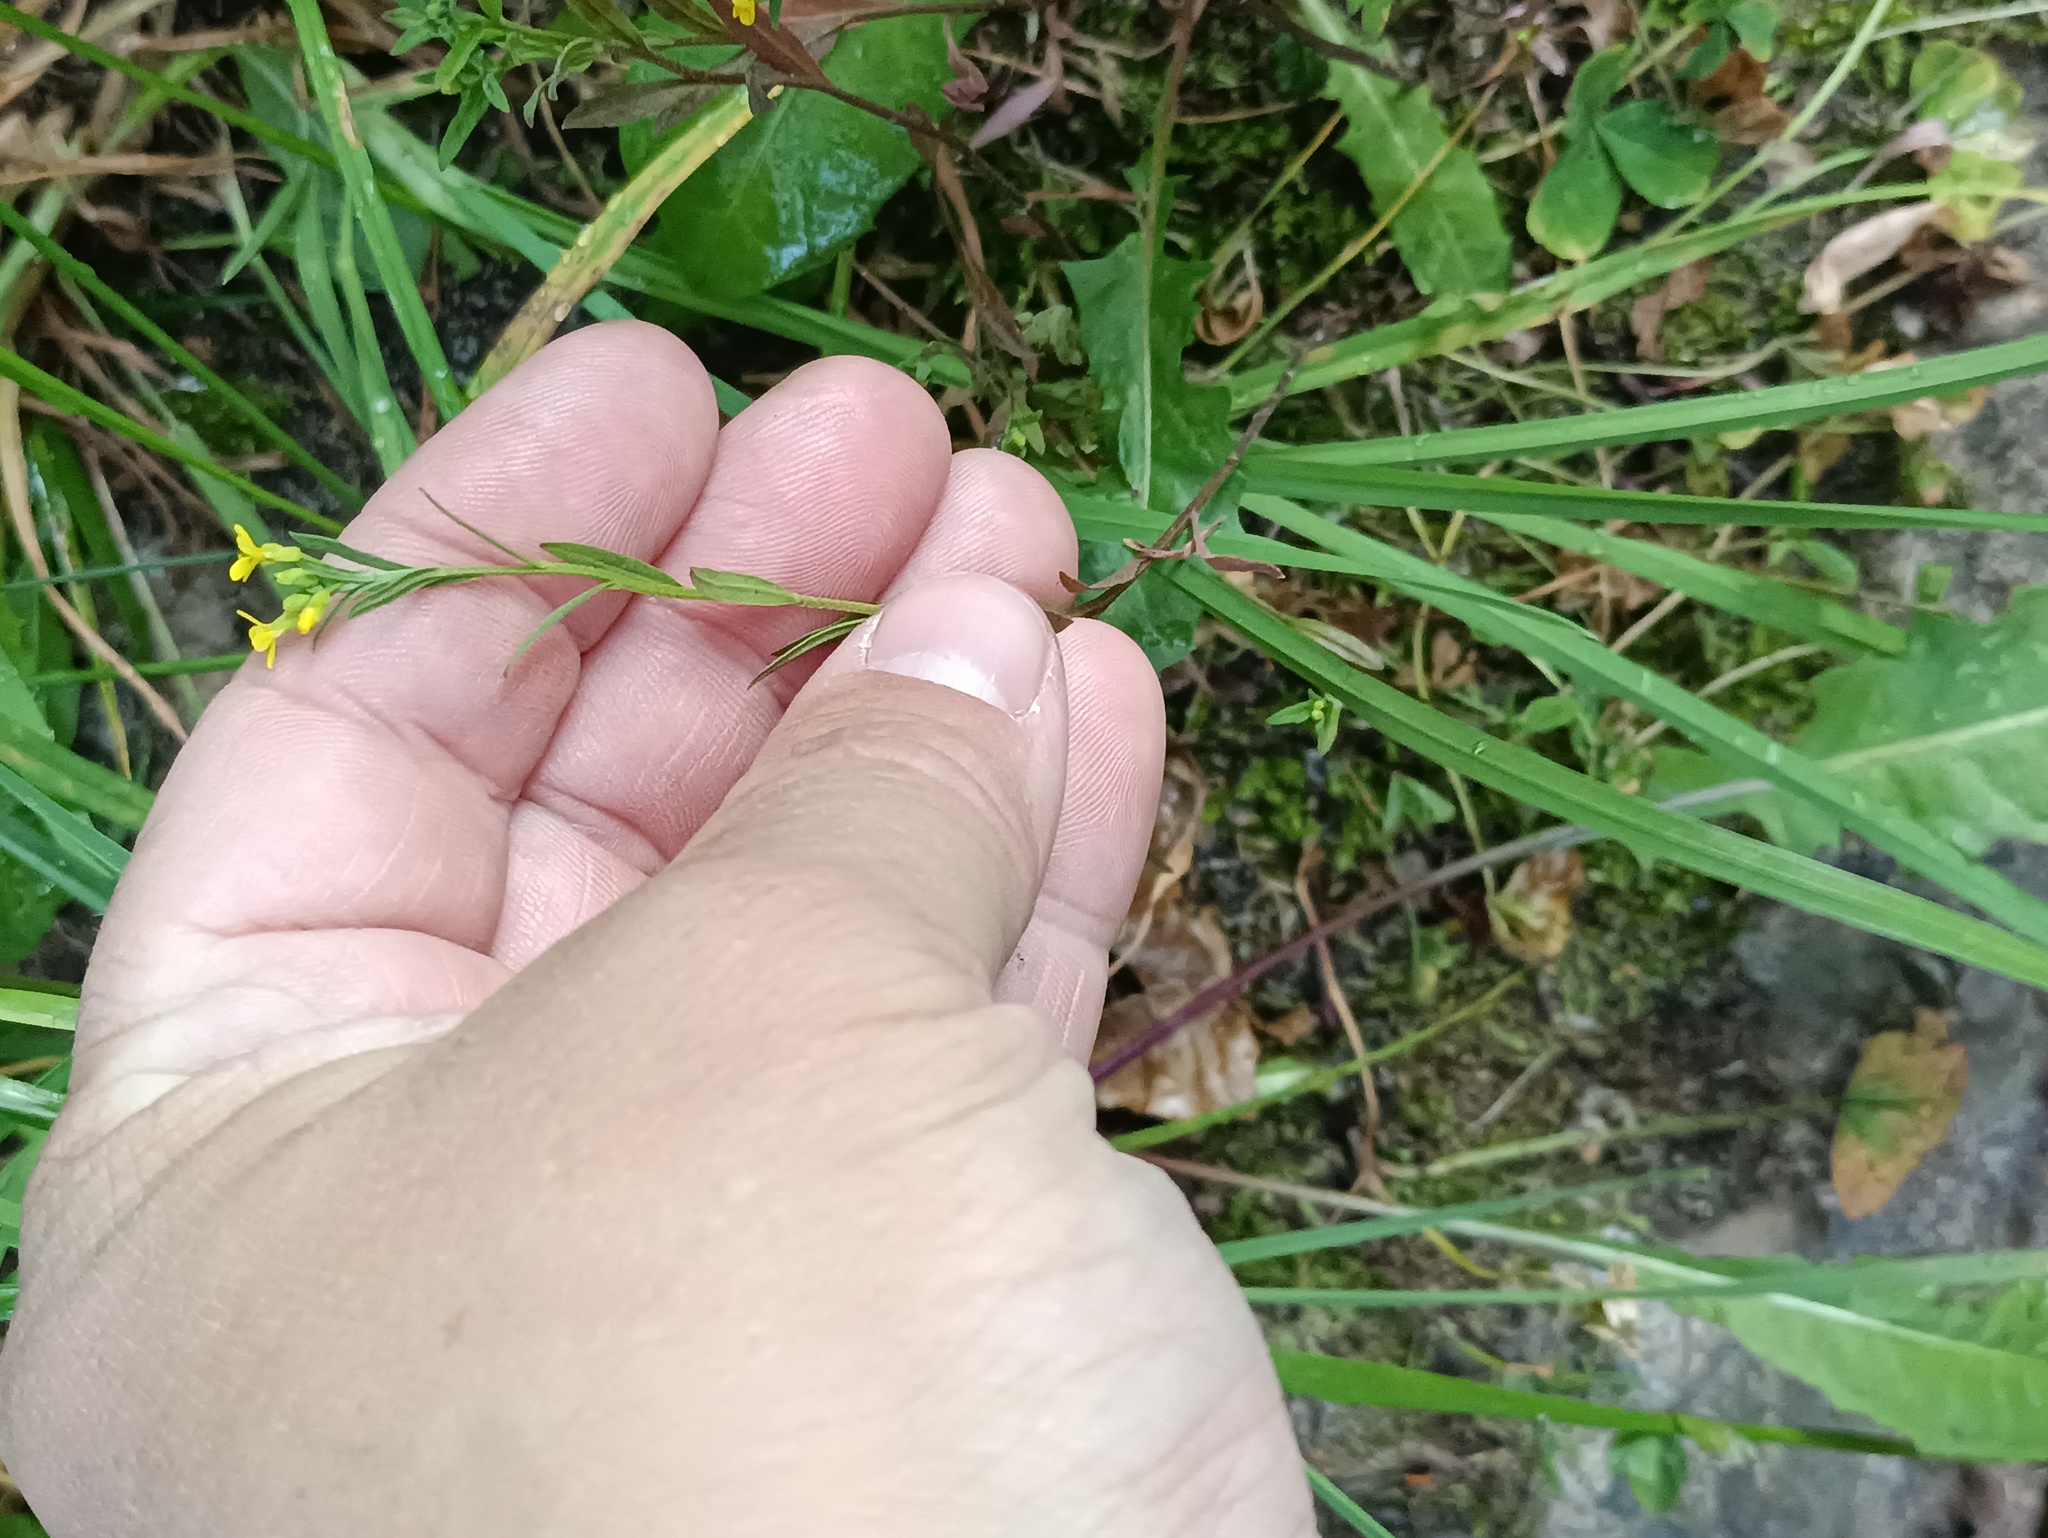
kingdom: Plantae
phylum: Tracheophyta
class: Magnoliopsida
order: Brassicales
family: Brassicaceae
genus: Erysimum
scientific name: Erysimum cheiranthoides
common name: Treacle mustard
